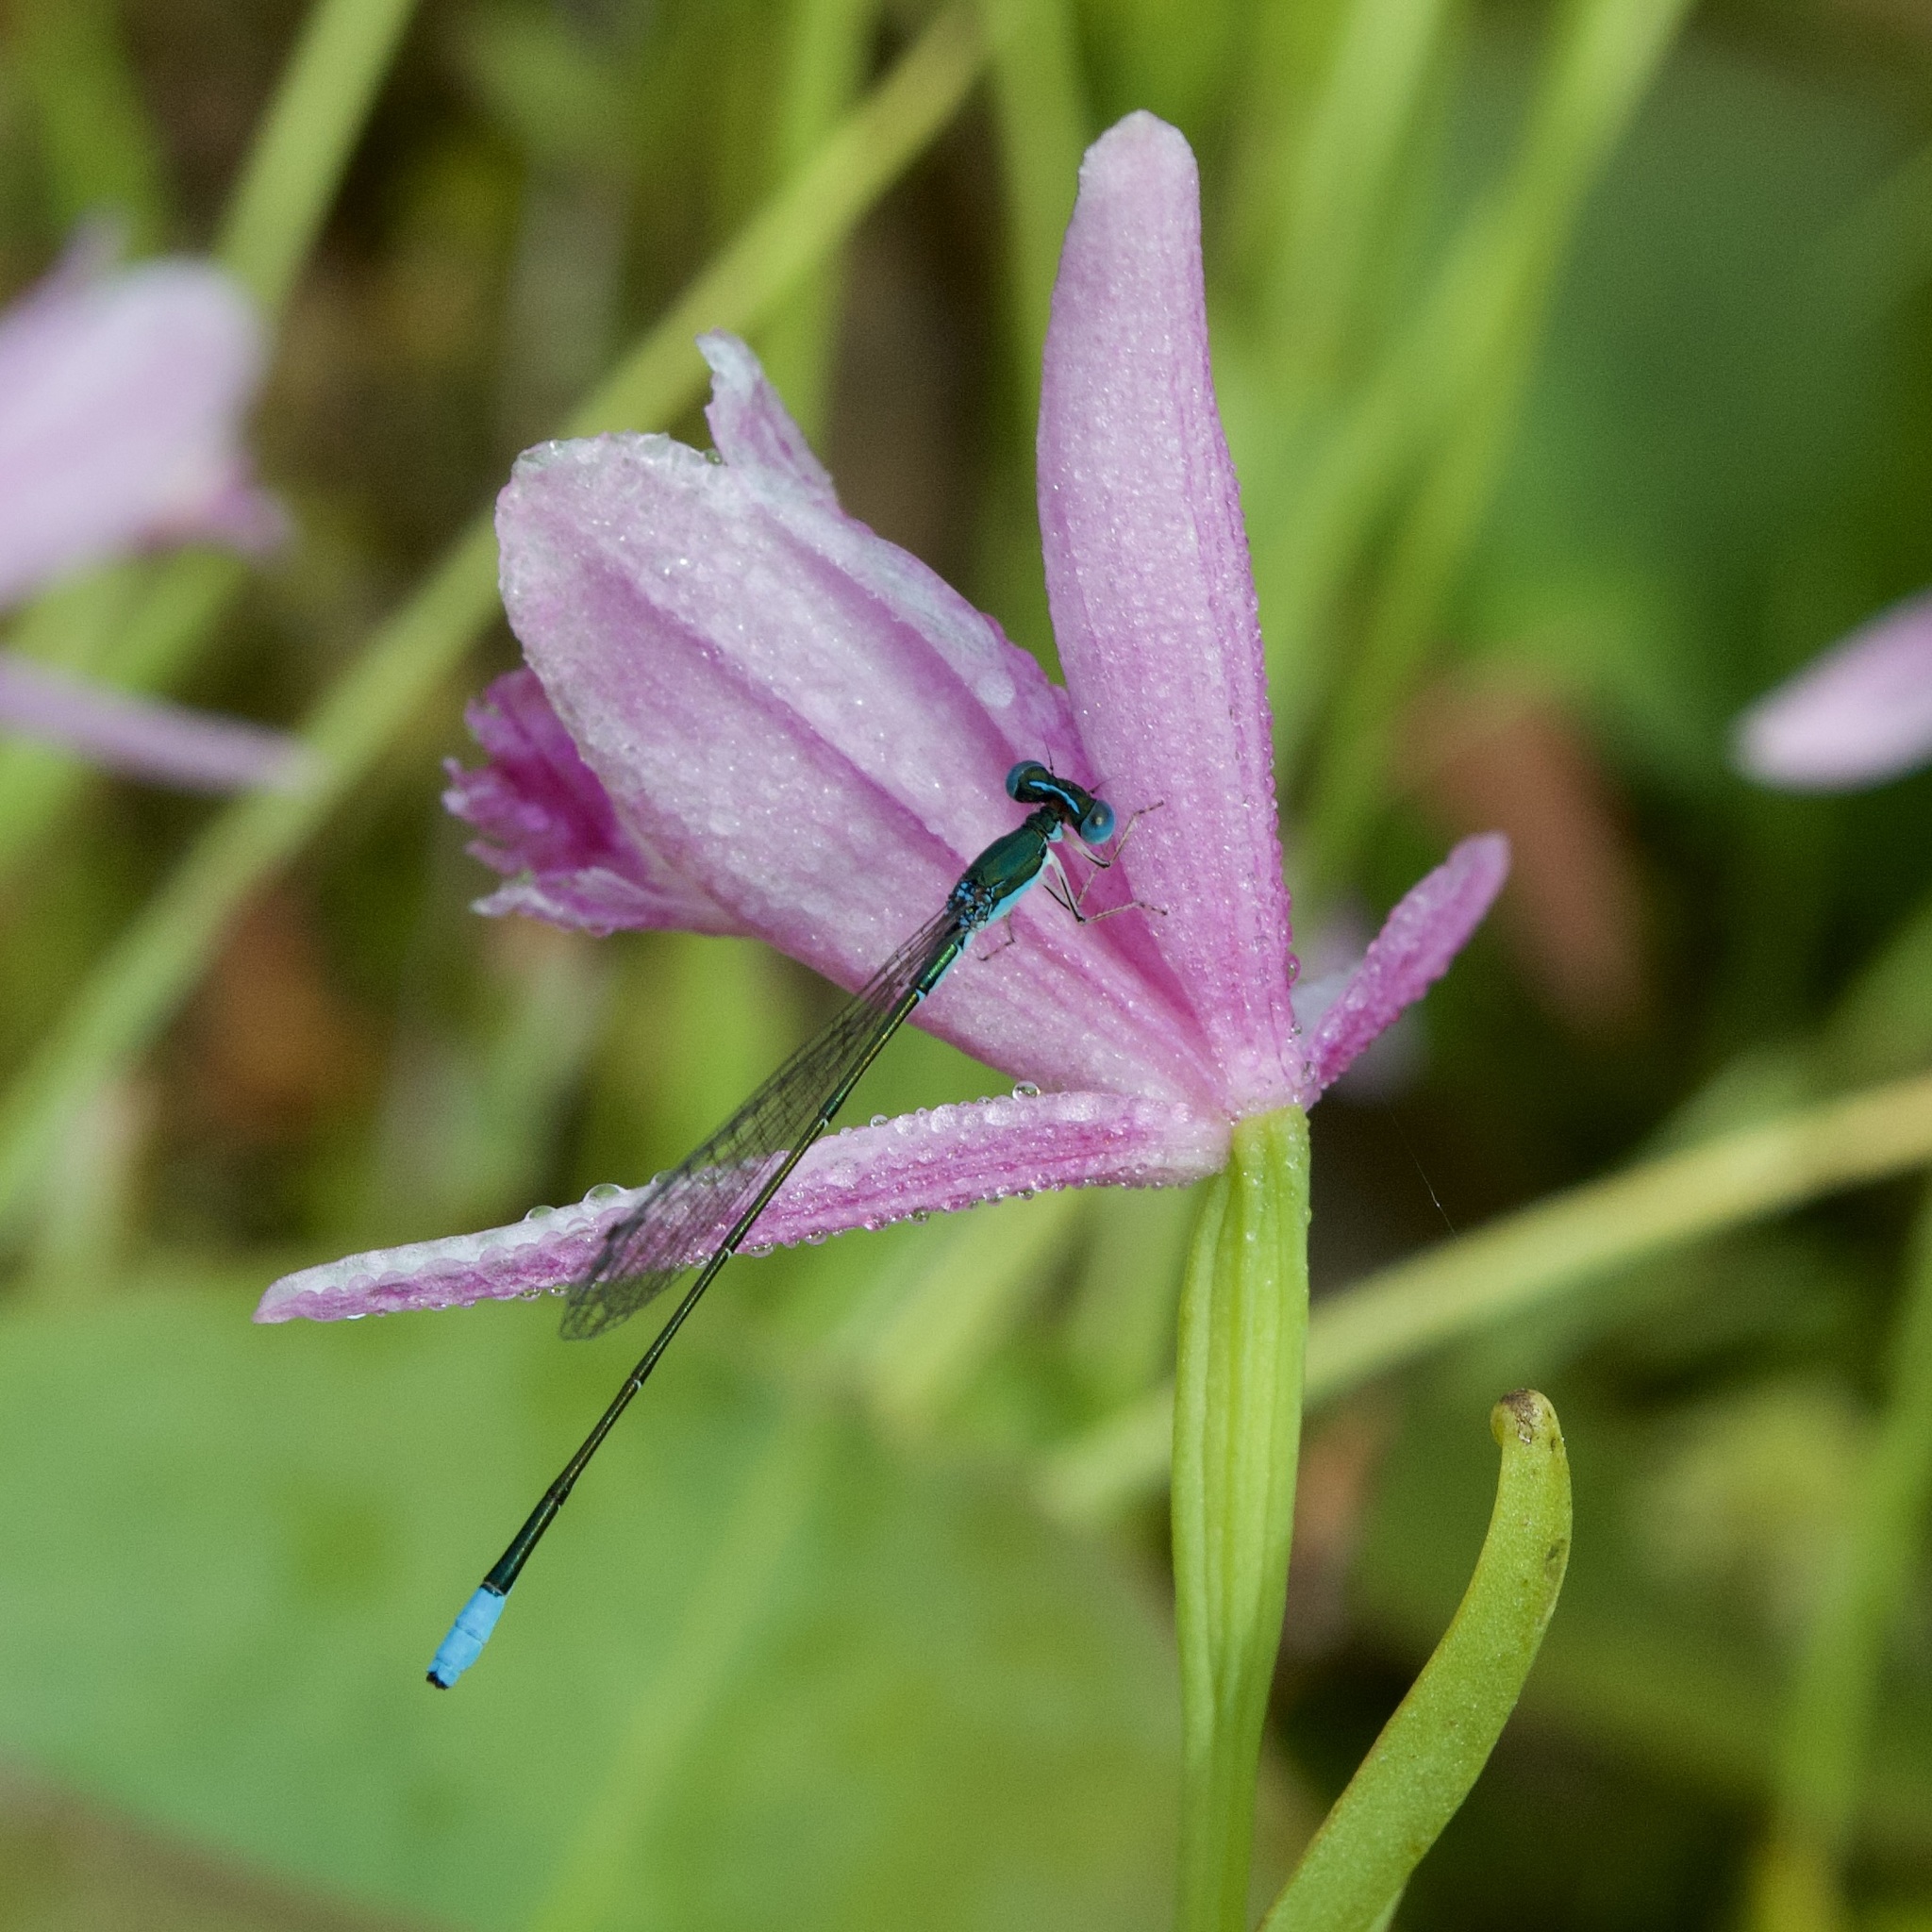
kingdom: Animalia
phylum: Arthropoda
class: Insecta
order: Odonata
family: Coenagrionidae
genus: Nehalennia
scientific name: Nehalennia gracilis
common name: Sphagnum sprite
